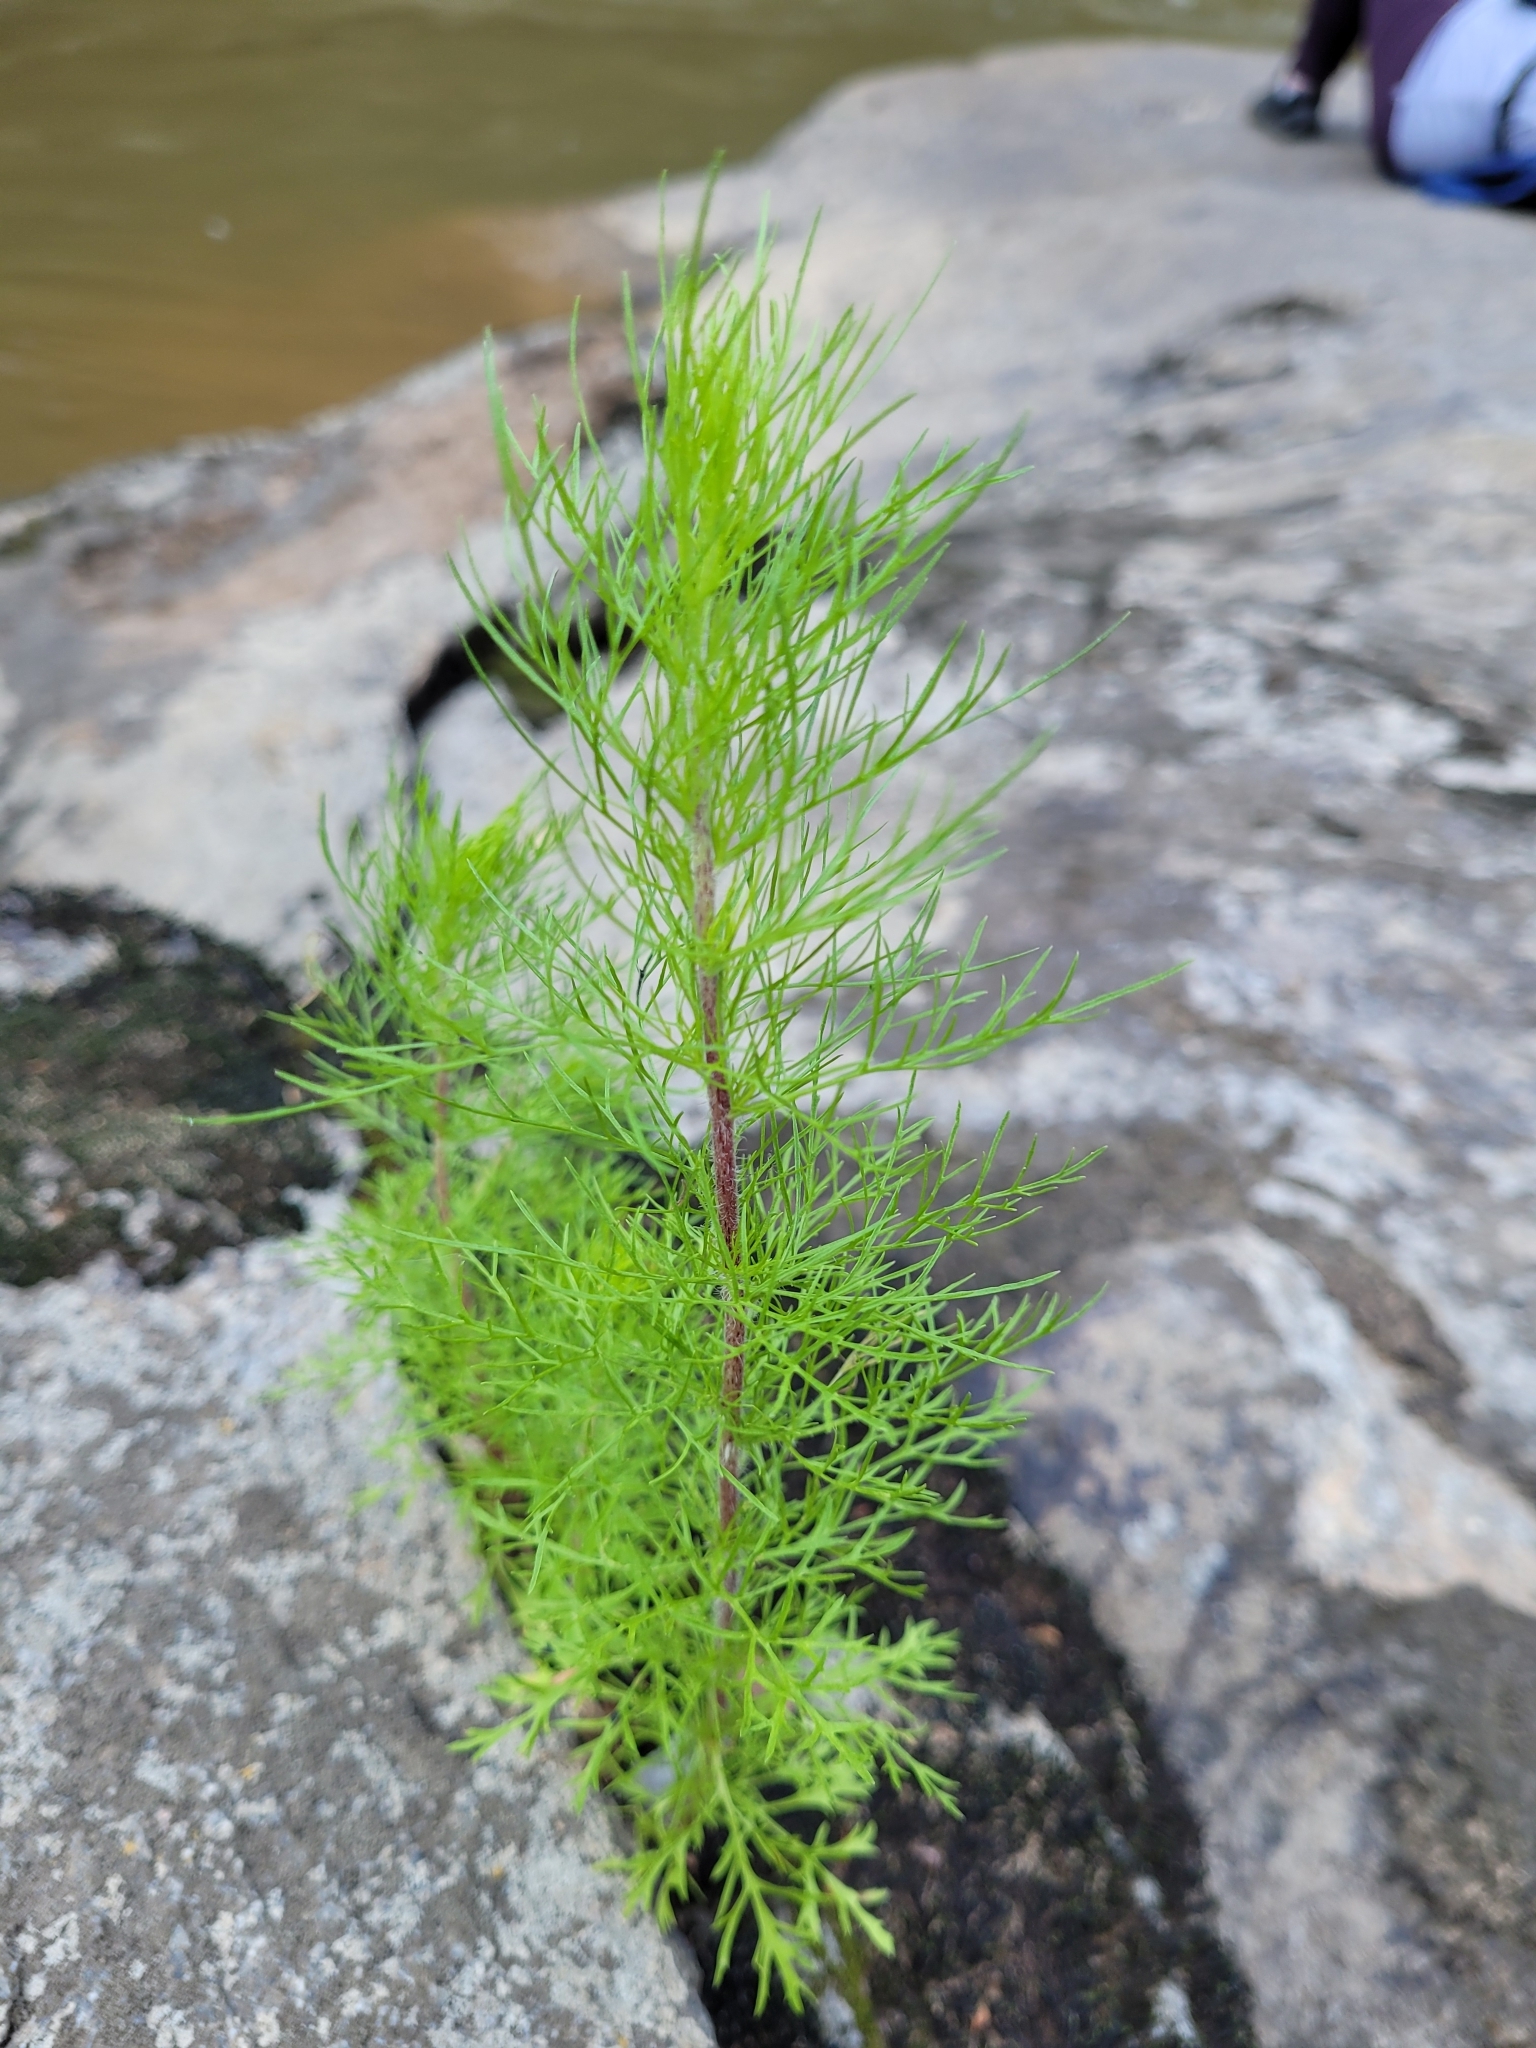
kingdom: Plantae
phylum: Tracheophyta
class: Magnoliopsida
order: Asterales
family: Asteraceae
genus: Eupatorium
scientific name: Eupatorium capillifolium
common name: Dog-fennel
